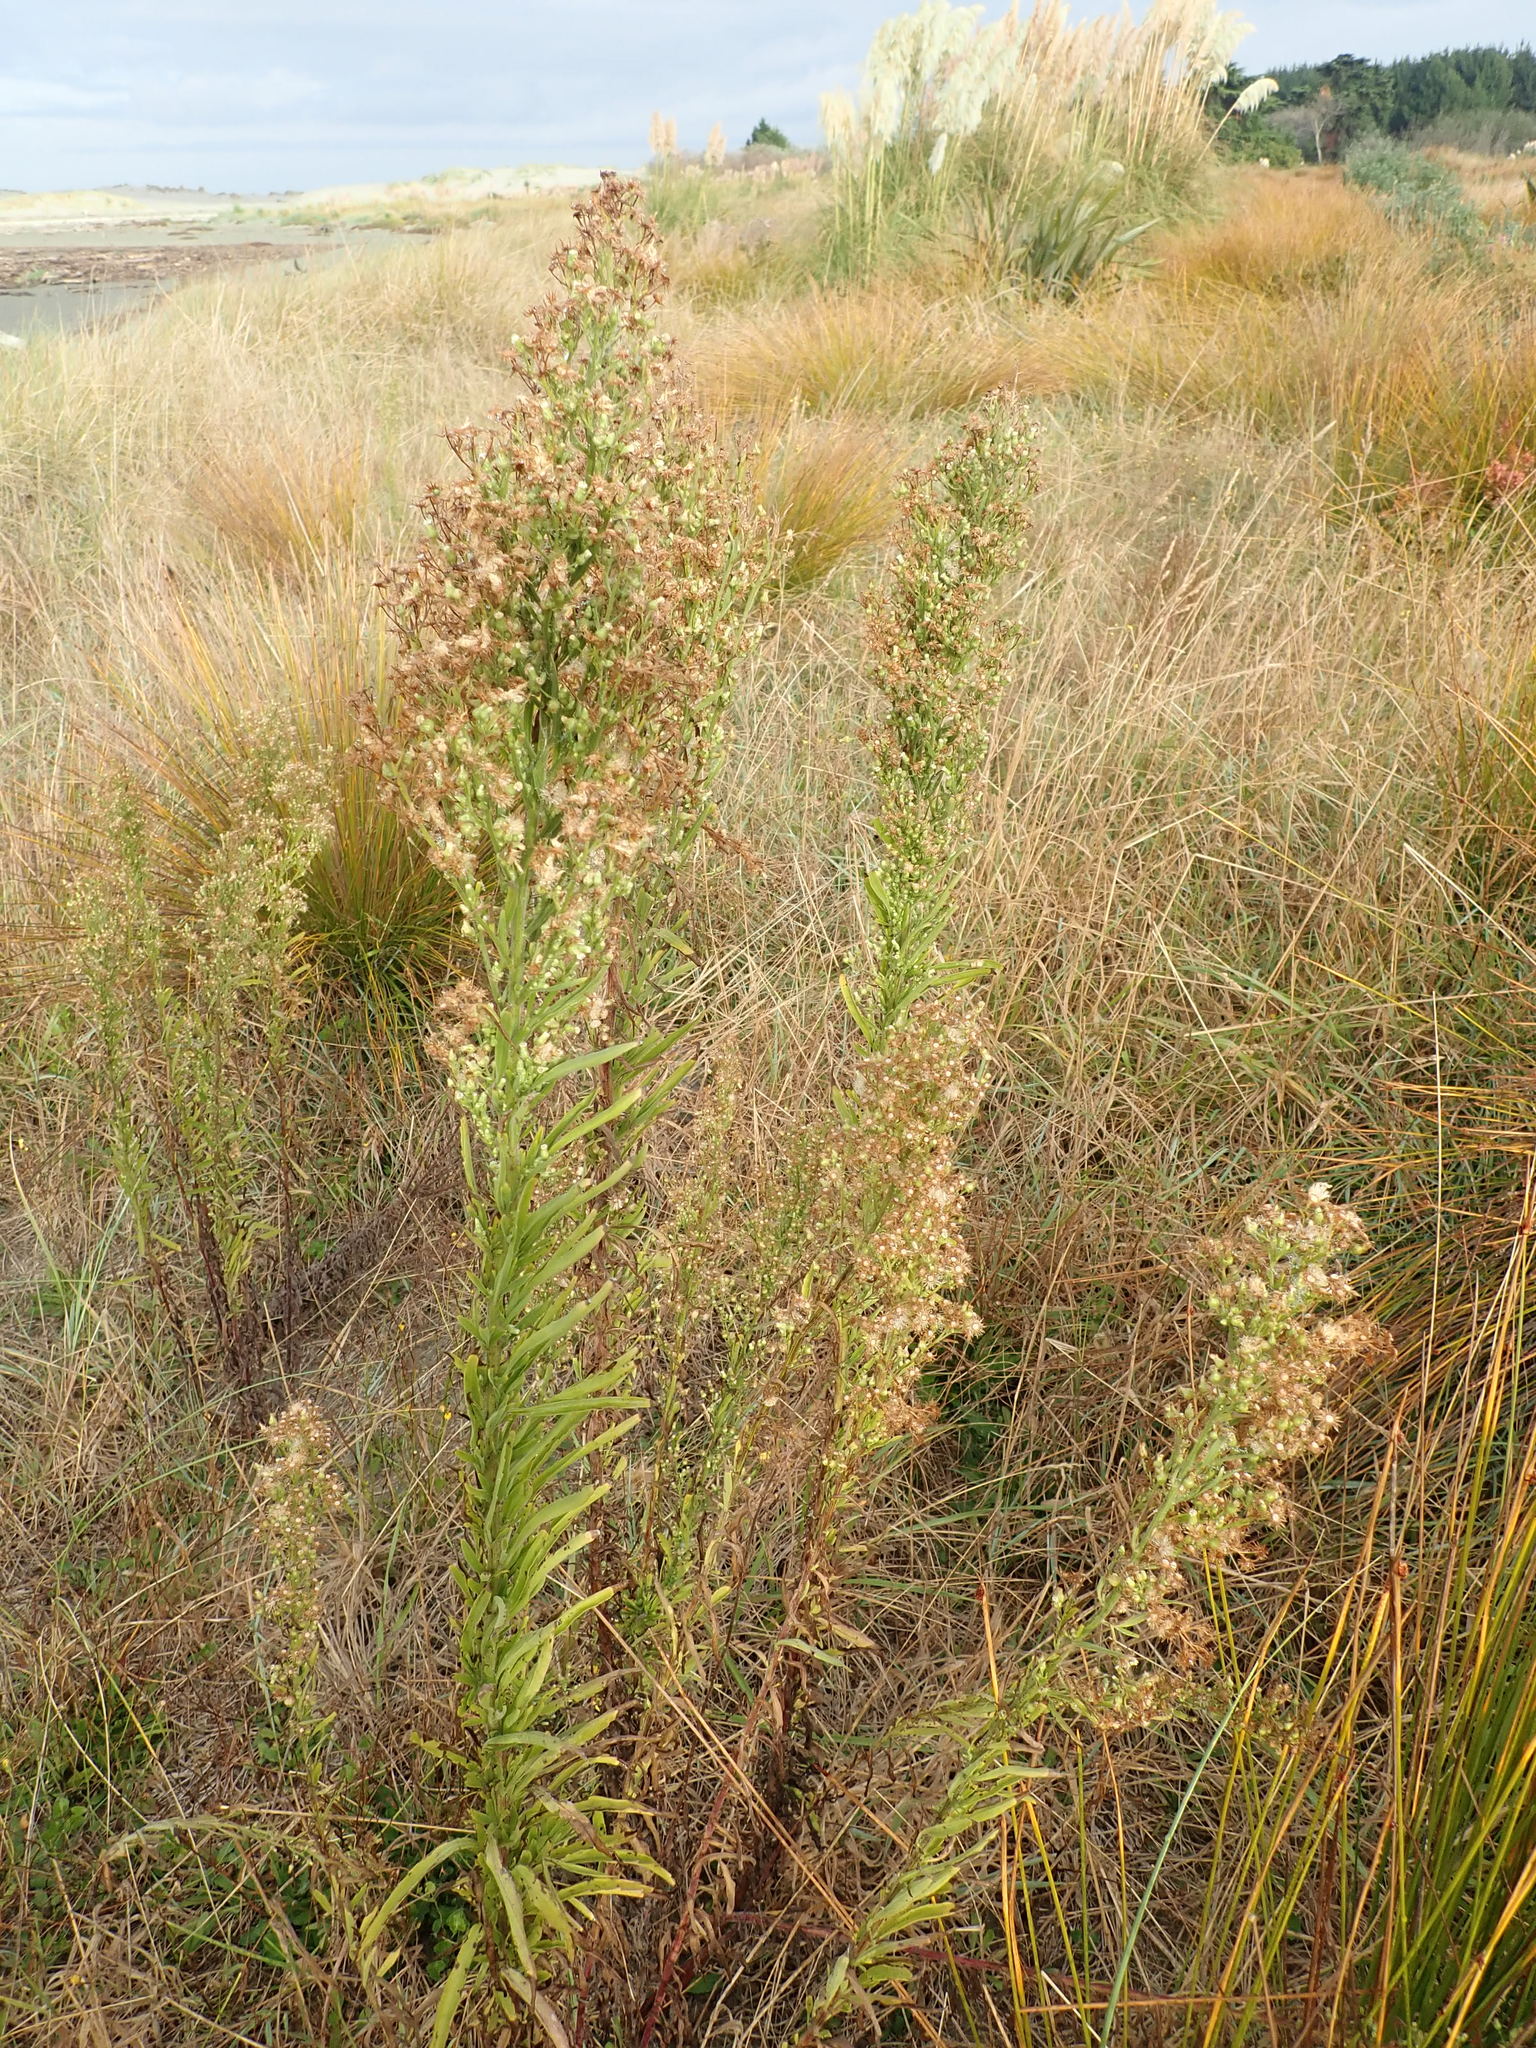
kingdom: Plantae
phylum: Tracheophyta
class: Magnoliopsida
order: Asterales
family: Asteraceae
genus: Erigeron
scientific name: Erigeron sumatrensis
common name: Daisy
